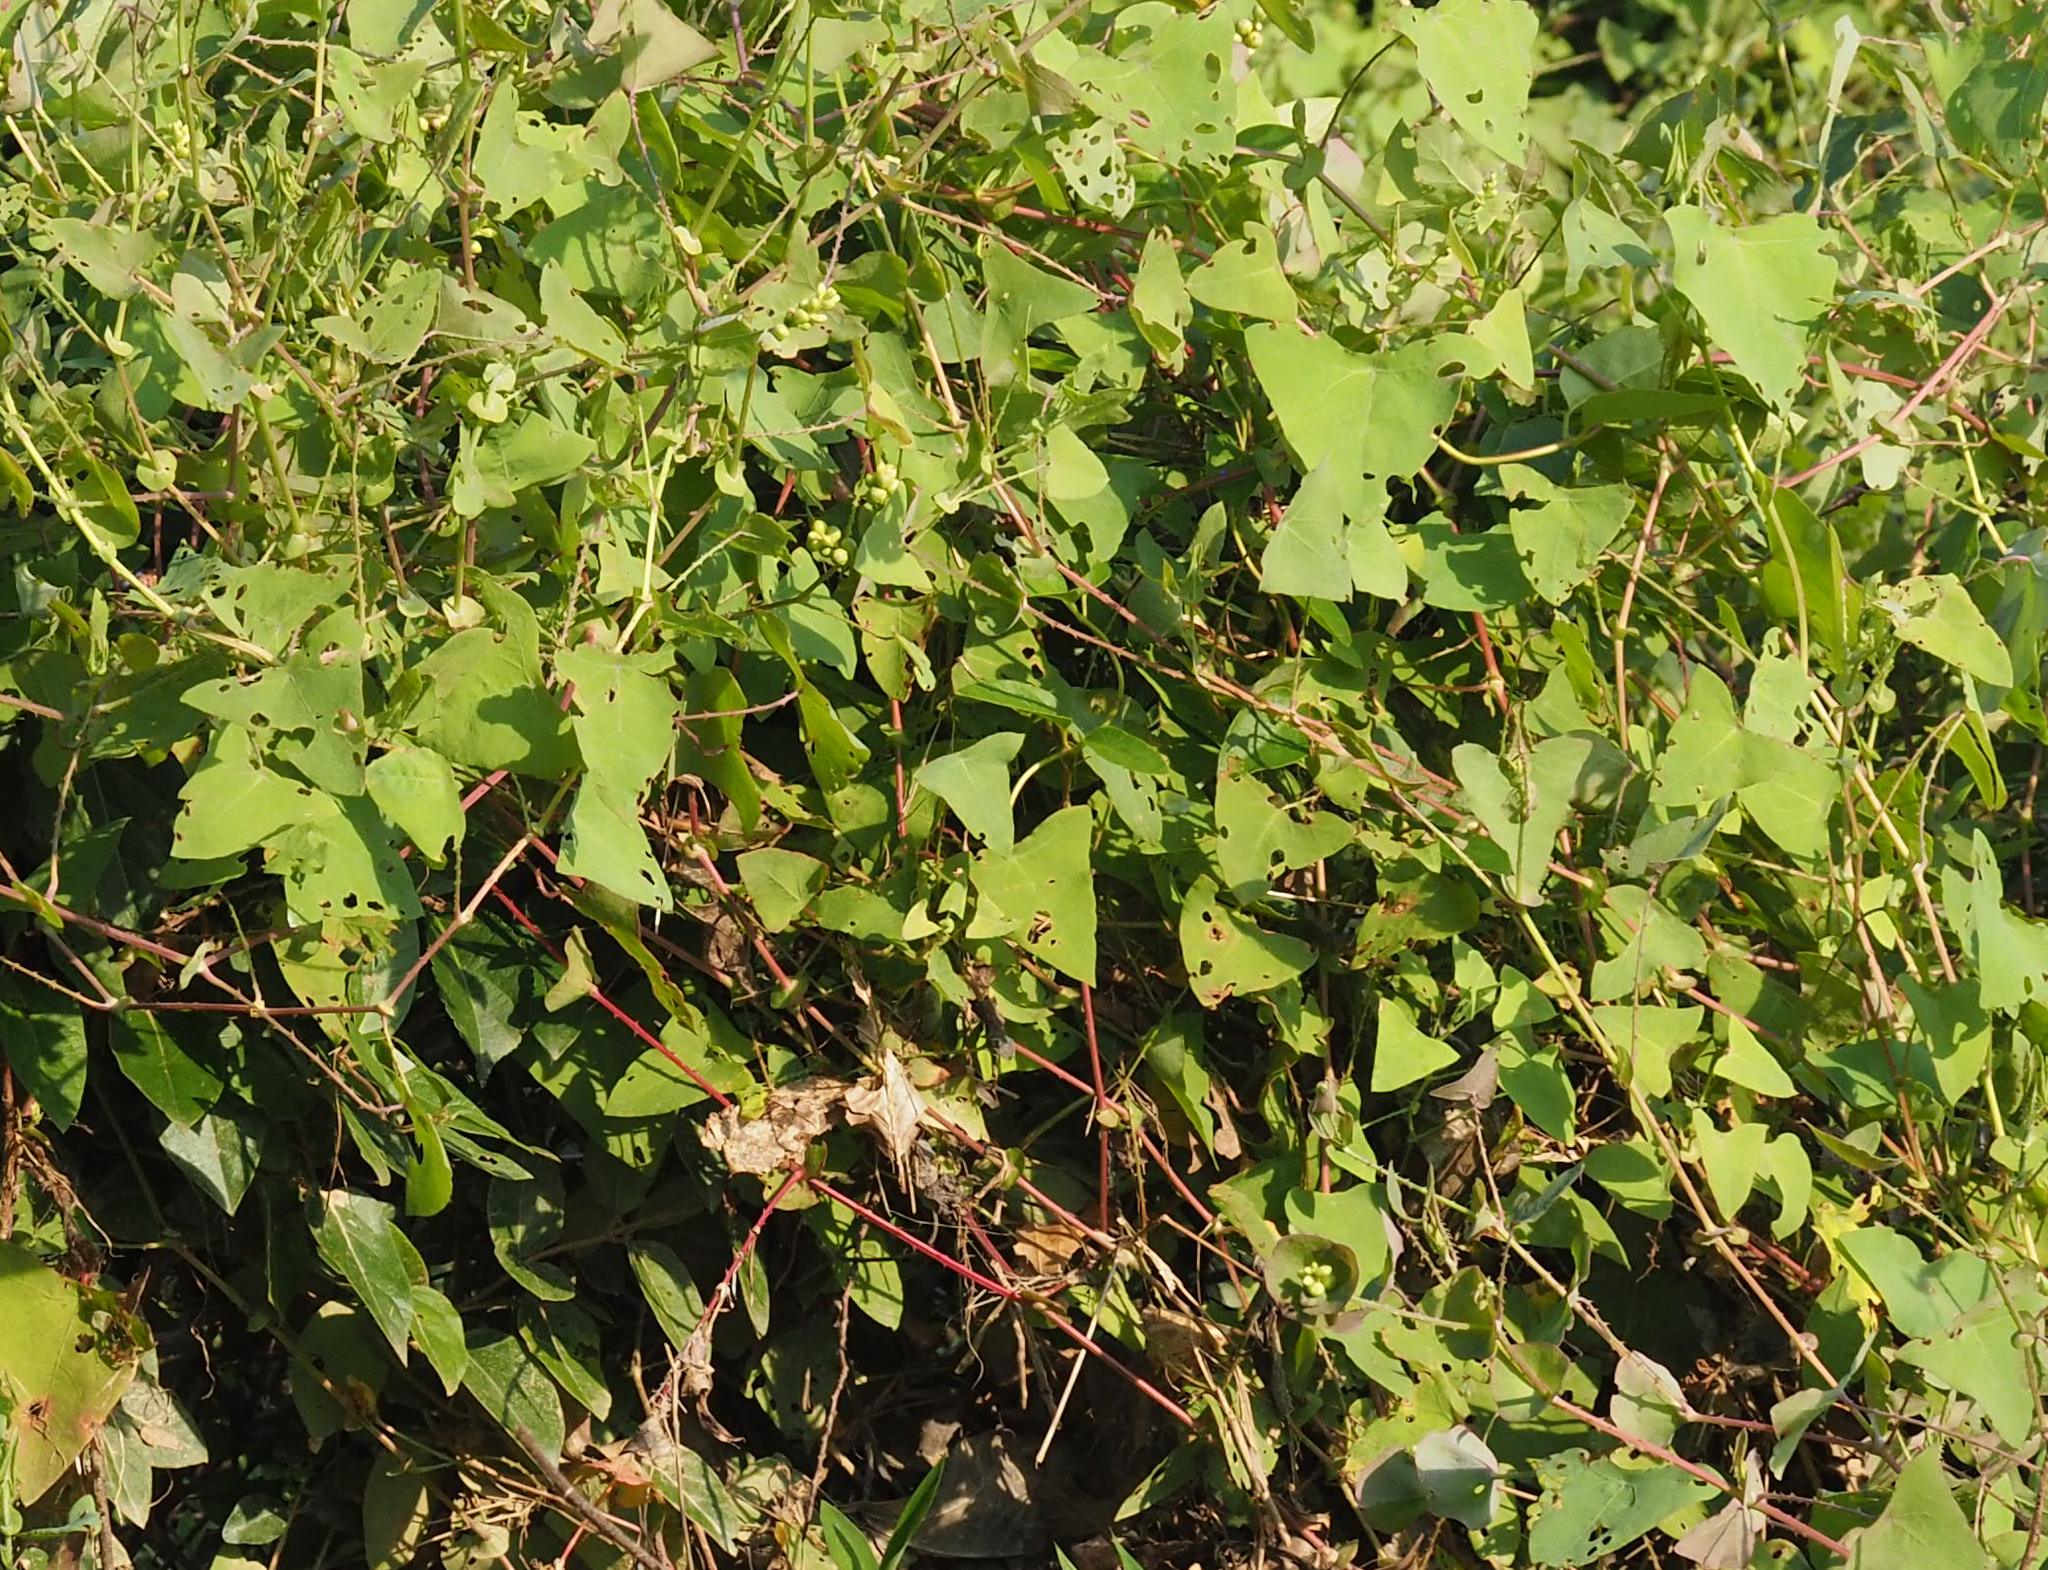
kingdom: Plantae
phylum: Tracheophyta
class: Magnoliopsida
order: Caryophyllales
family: Polygonaceae
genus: Persicaria
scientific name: Persicaria perfoliata
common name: Asiatic tearthumb
